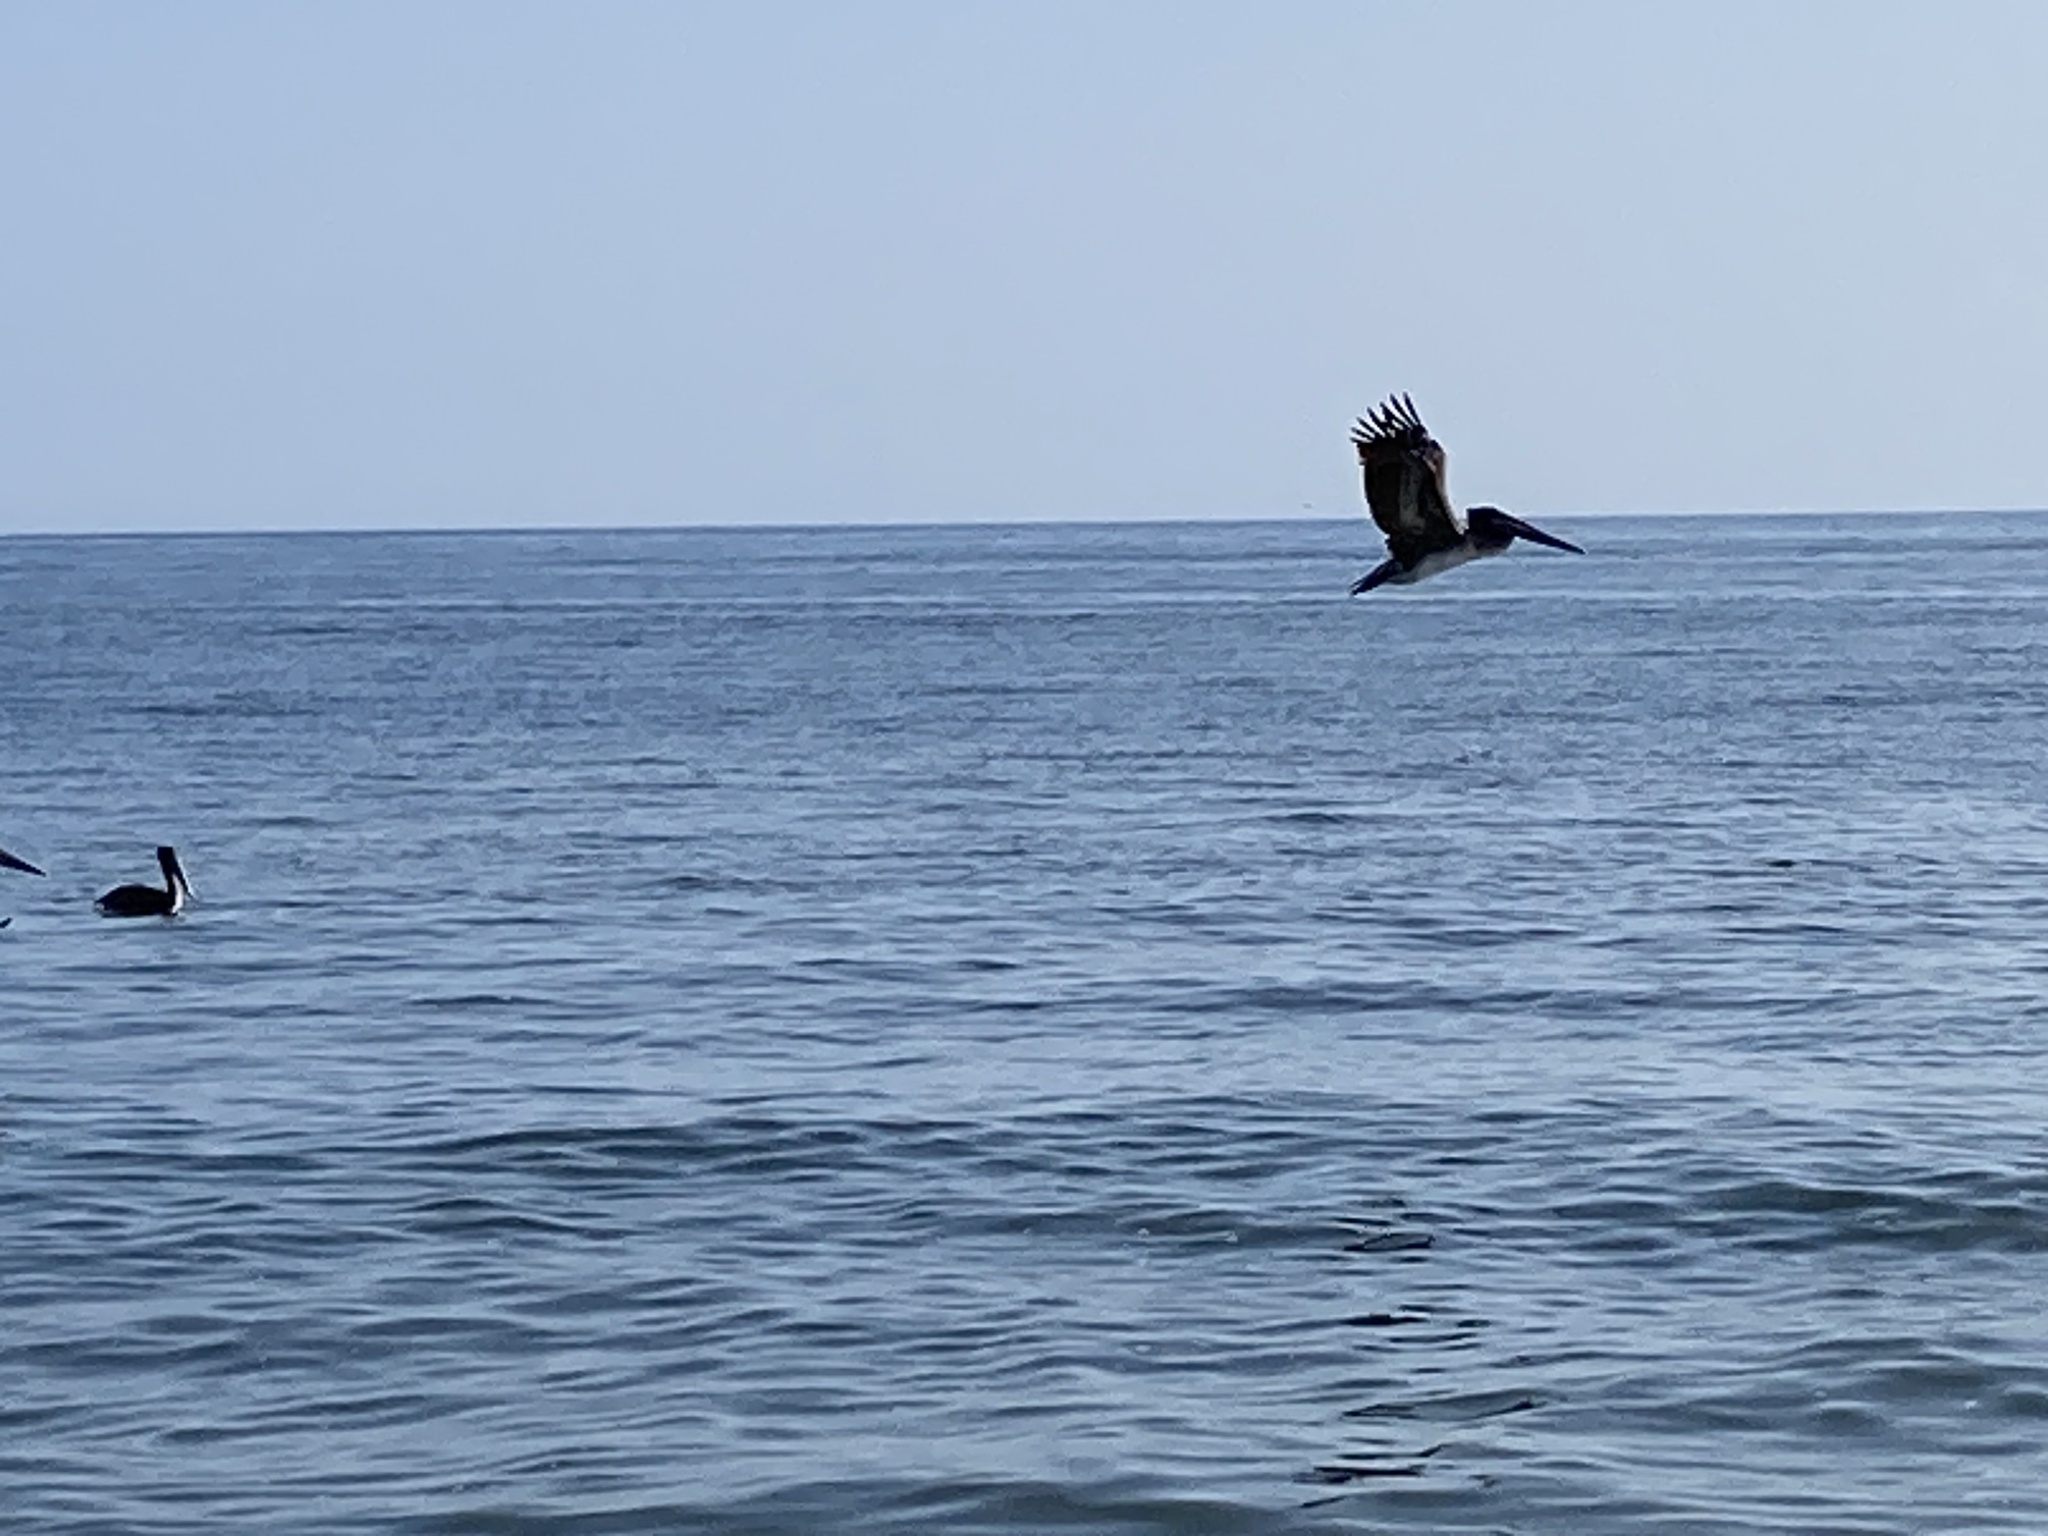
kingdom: Animalia
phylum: Chordata
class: Aves
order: Pelecaniformes
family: Pelecanidae
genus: Pelecanus
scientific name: Pelecanus occidentalis
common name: Brown pelican
